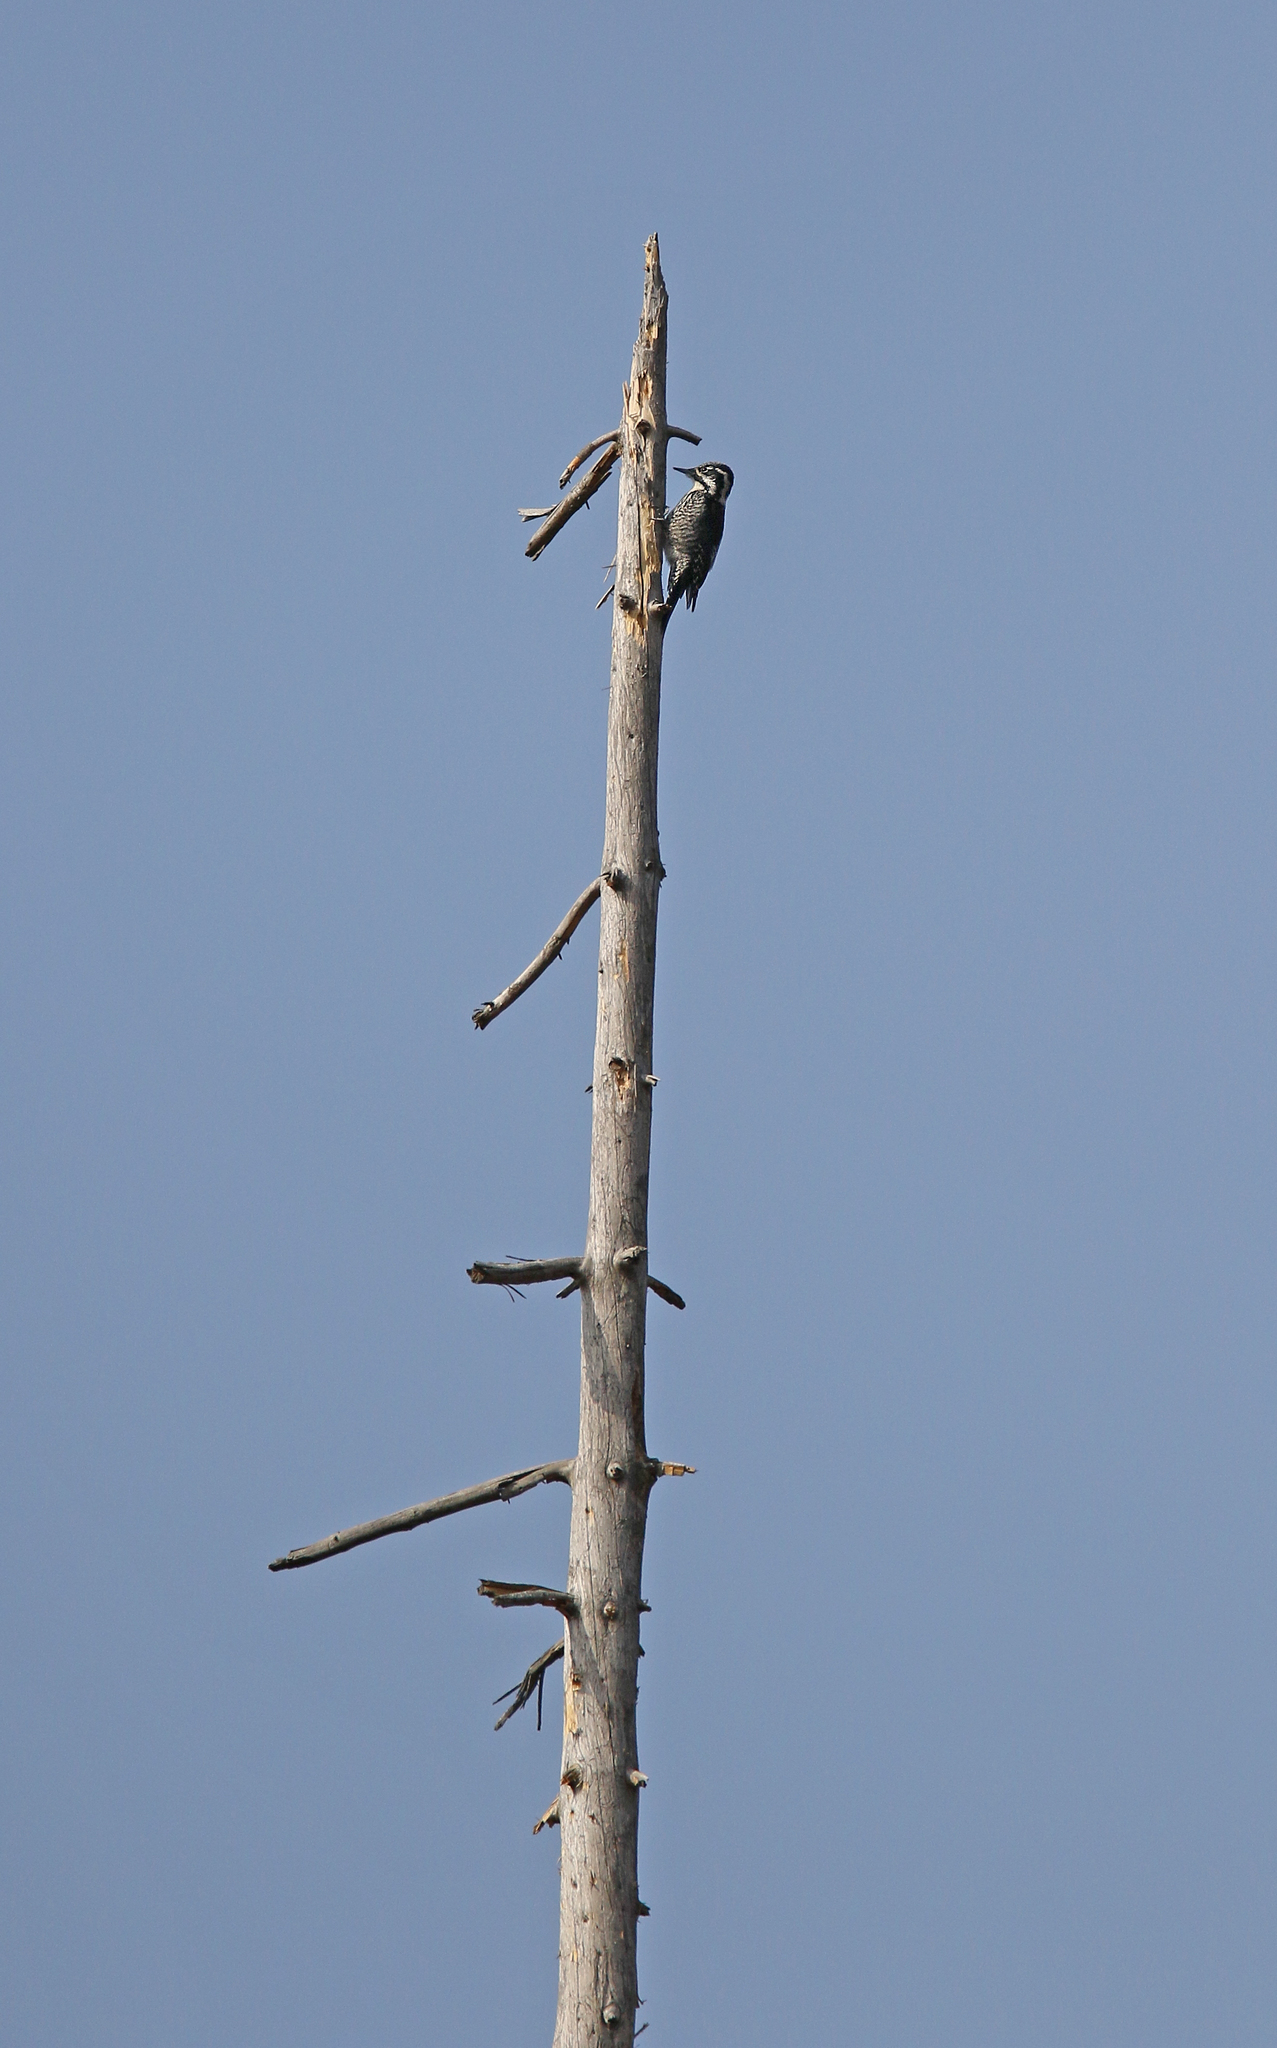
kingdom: Animalia
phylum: Chordata
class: Aves
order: Piciformes
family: Picidae
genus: Picoides
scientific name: Picoides tridactylus
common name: Eurasian three-toed woodpecker
